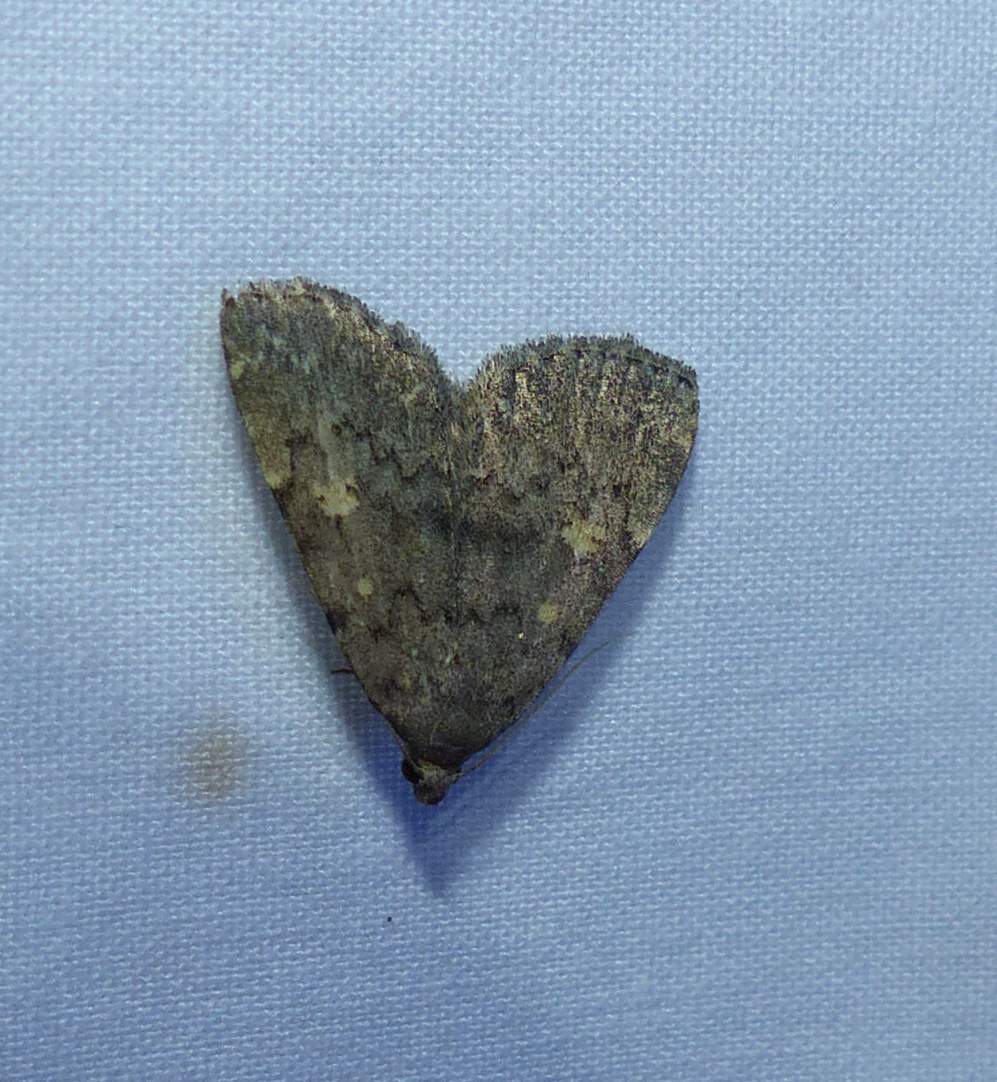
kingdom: Animalia
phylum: Arthropoda
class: Insecta
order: Lepidoptera
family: Erebidae
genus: Idia
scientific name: Idia aemula
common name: Common idia moth
